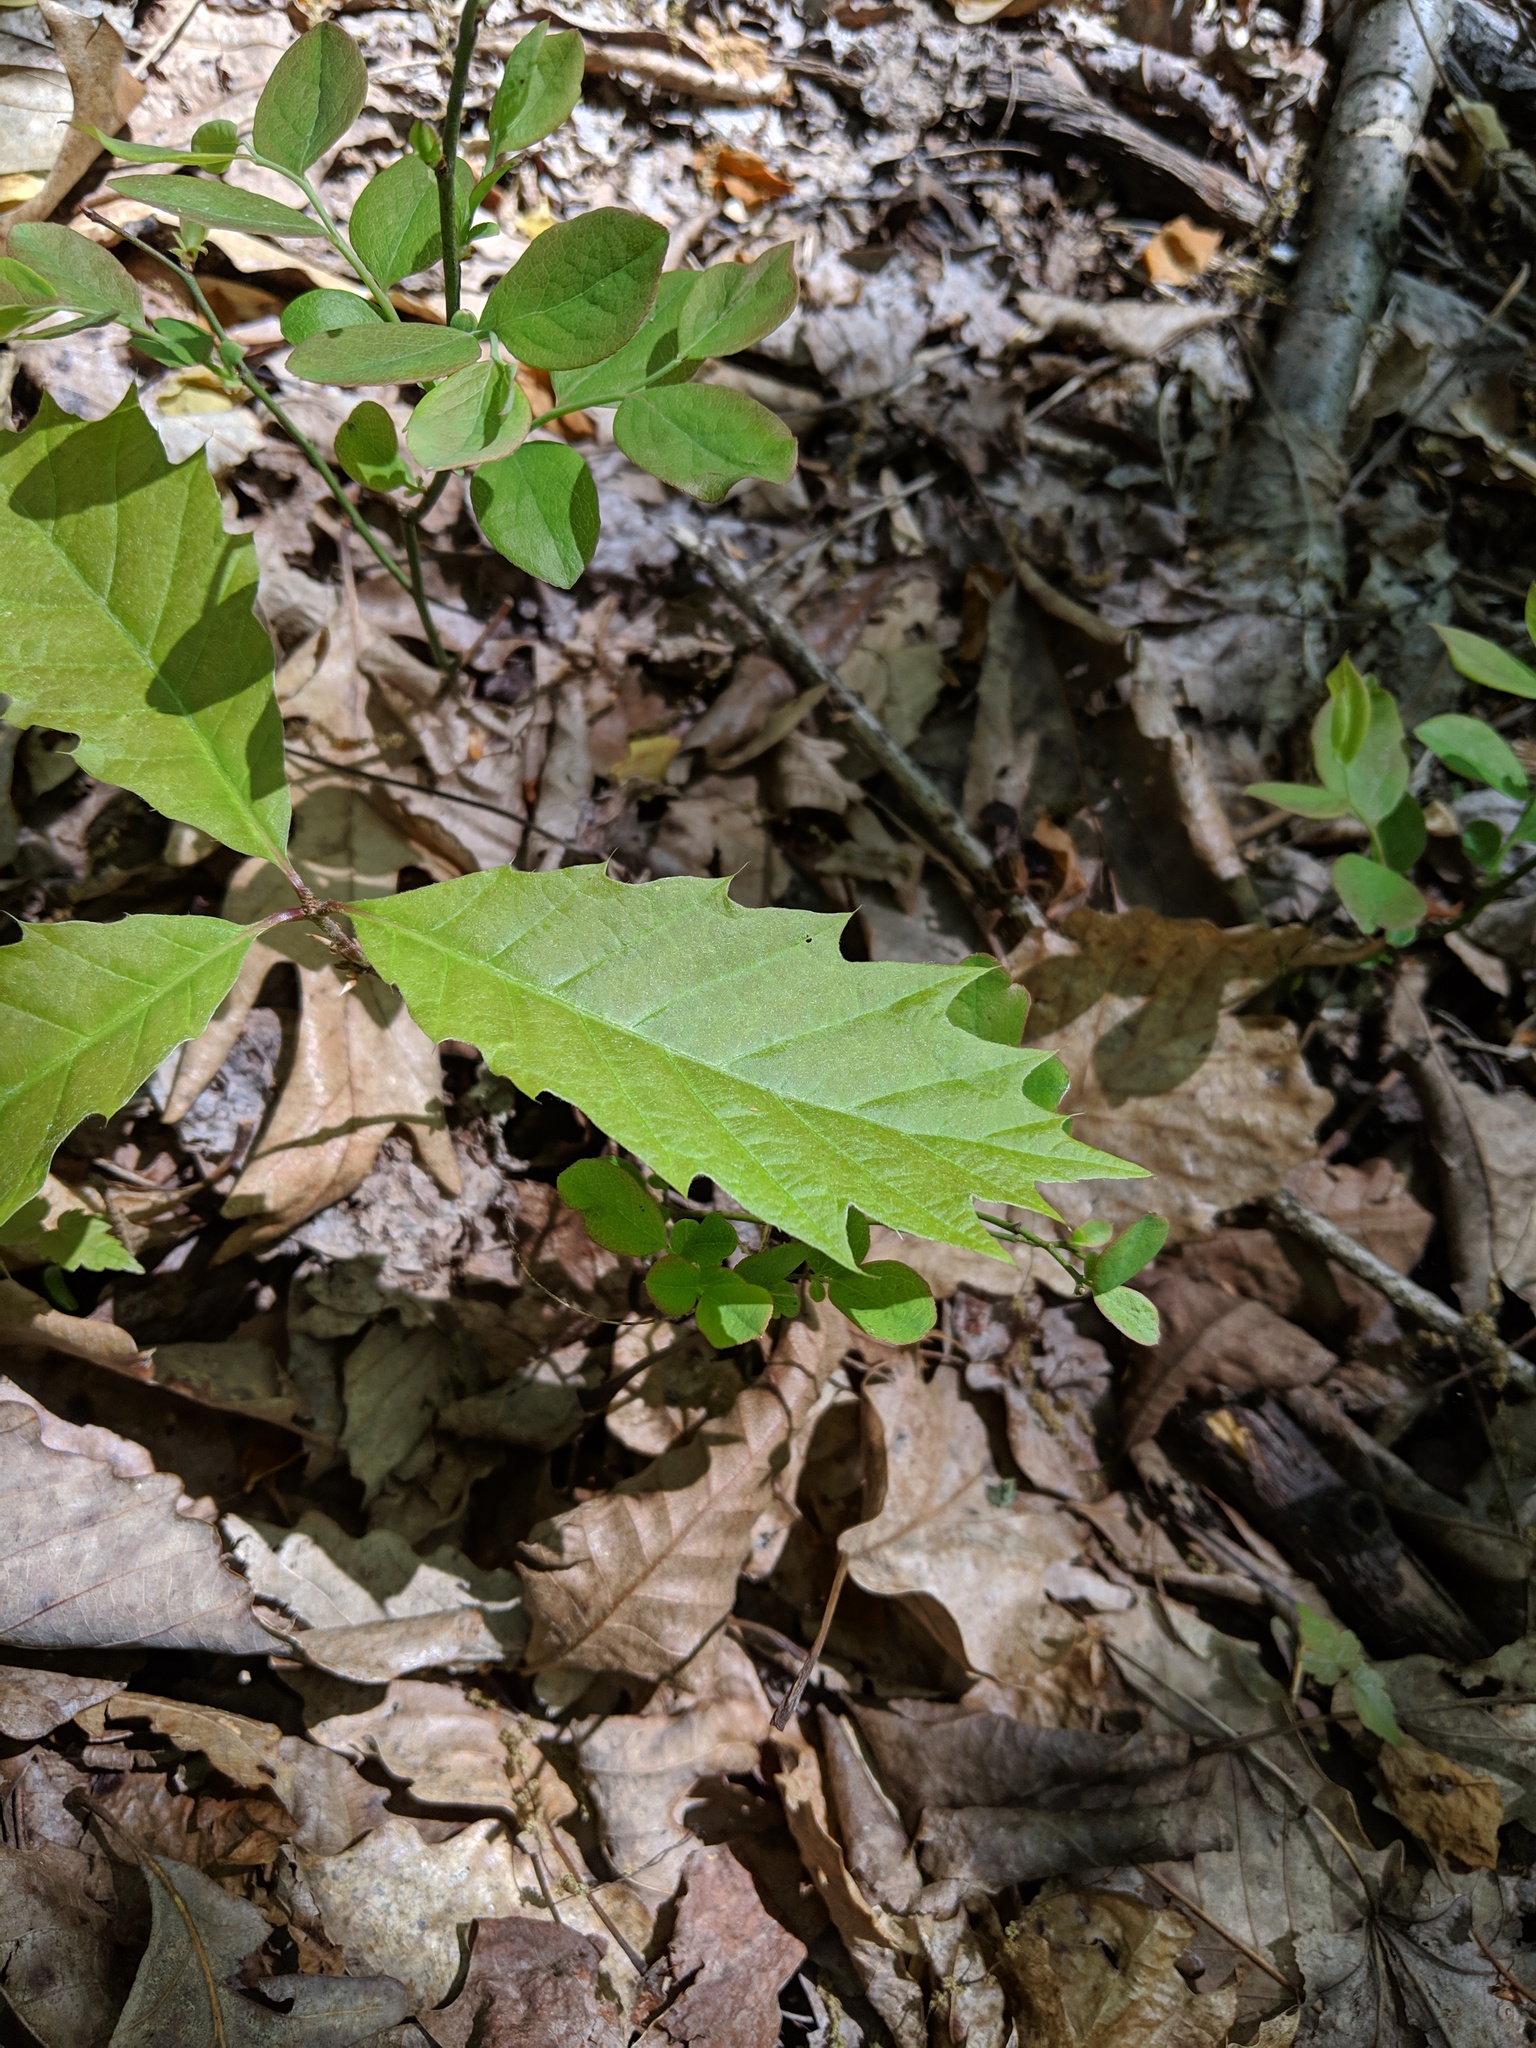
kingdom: Plantae
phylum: Tracheophyta
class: Magnoliopsida
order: Fagales
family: Fagaceae
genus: Quercus
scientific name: Quercus rubra
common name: Red oak
